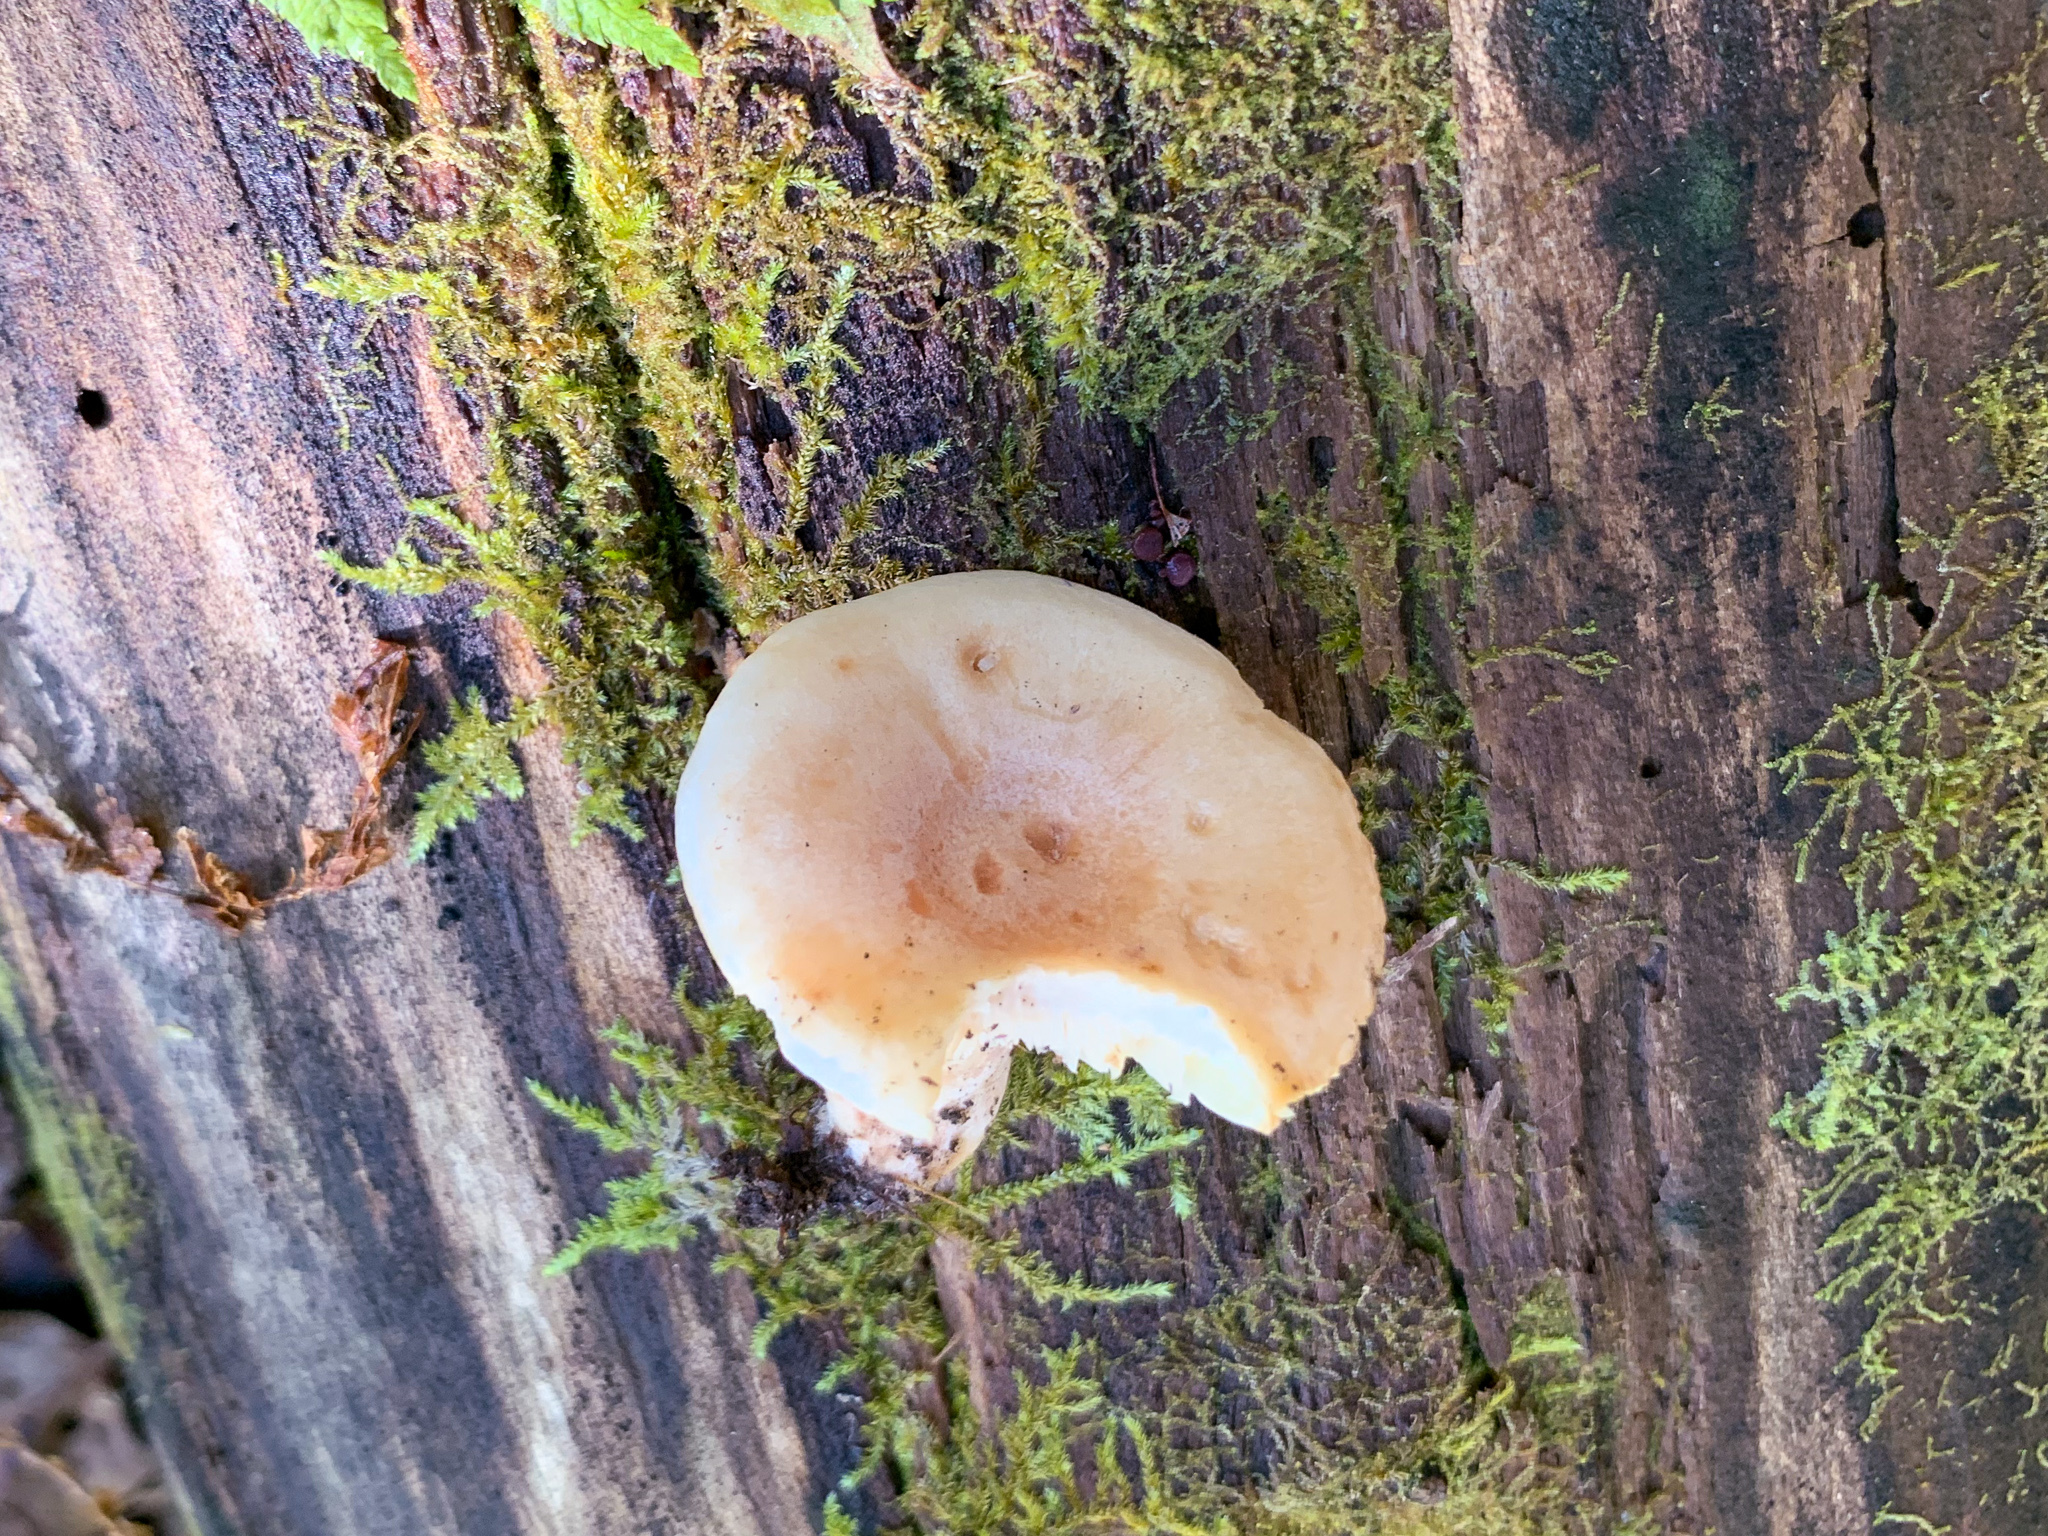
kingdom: Fungi
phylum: Basidiomycota
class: Agaricomycetes
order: Russulales
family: Russulaceae
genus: Lactarius
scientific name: Lactarius vinaceorufescens
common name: Yellow-latex milkcap
